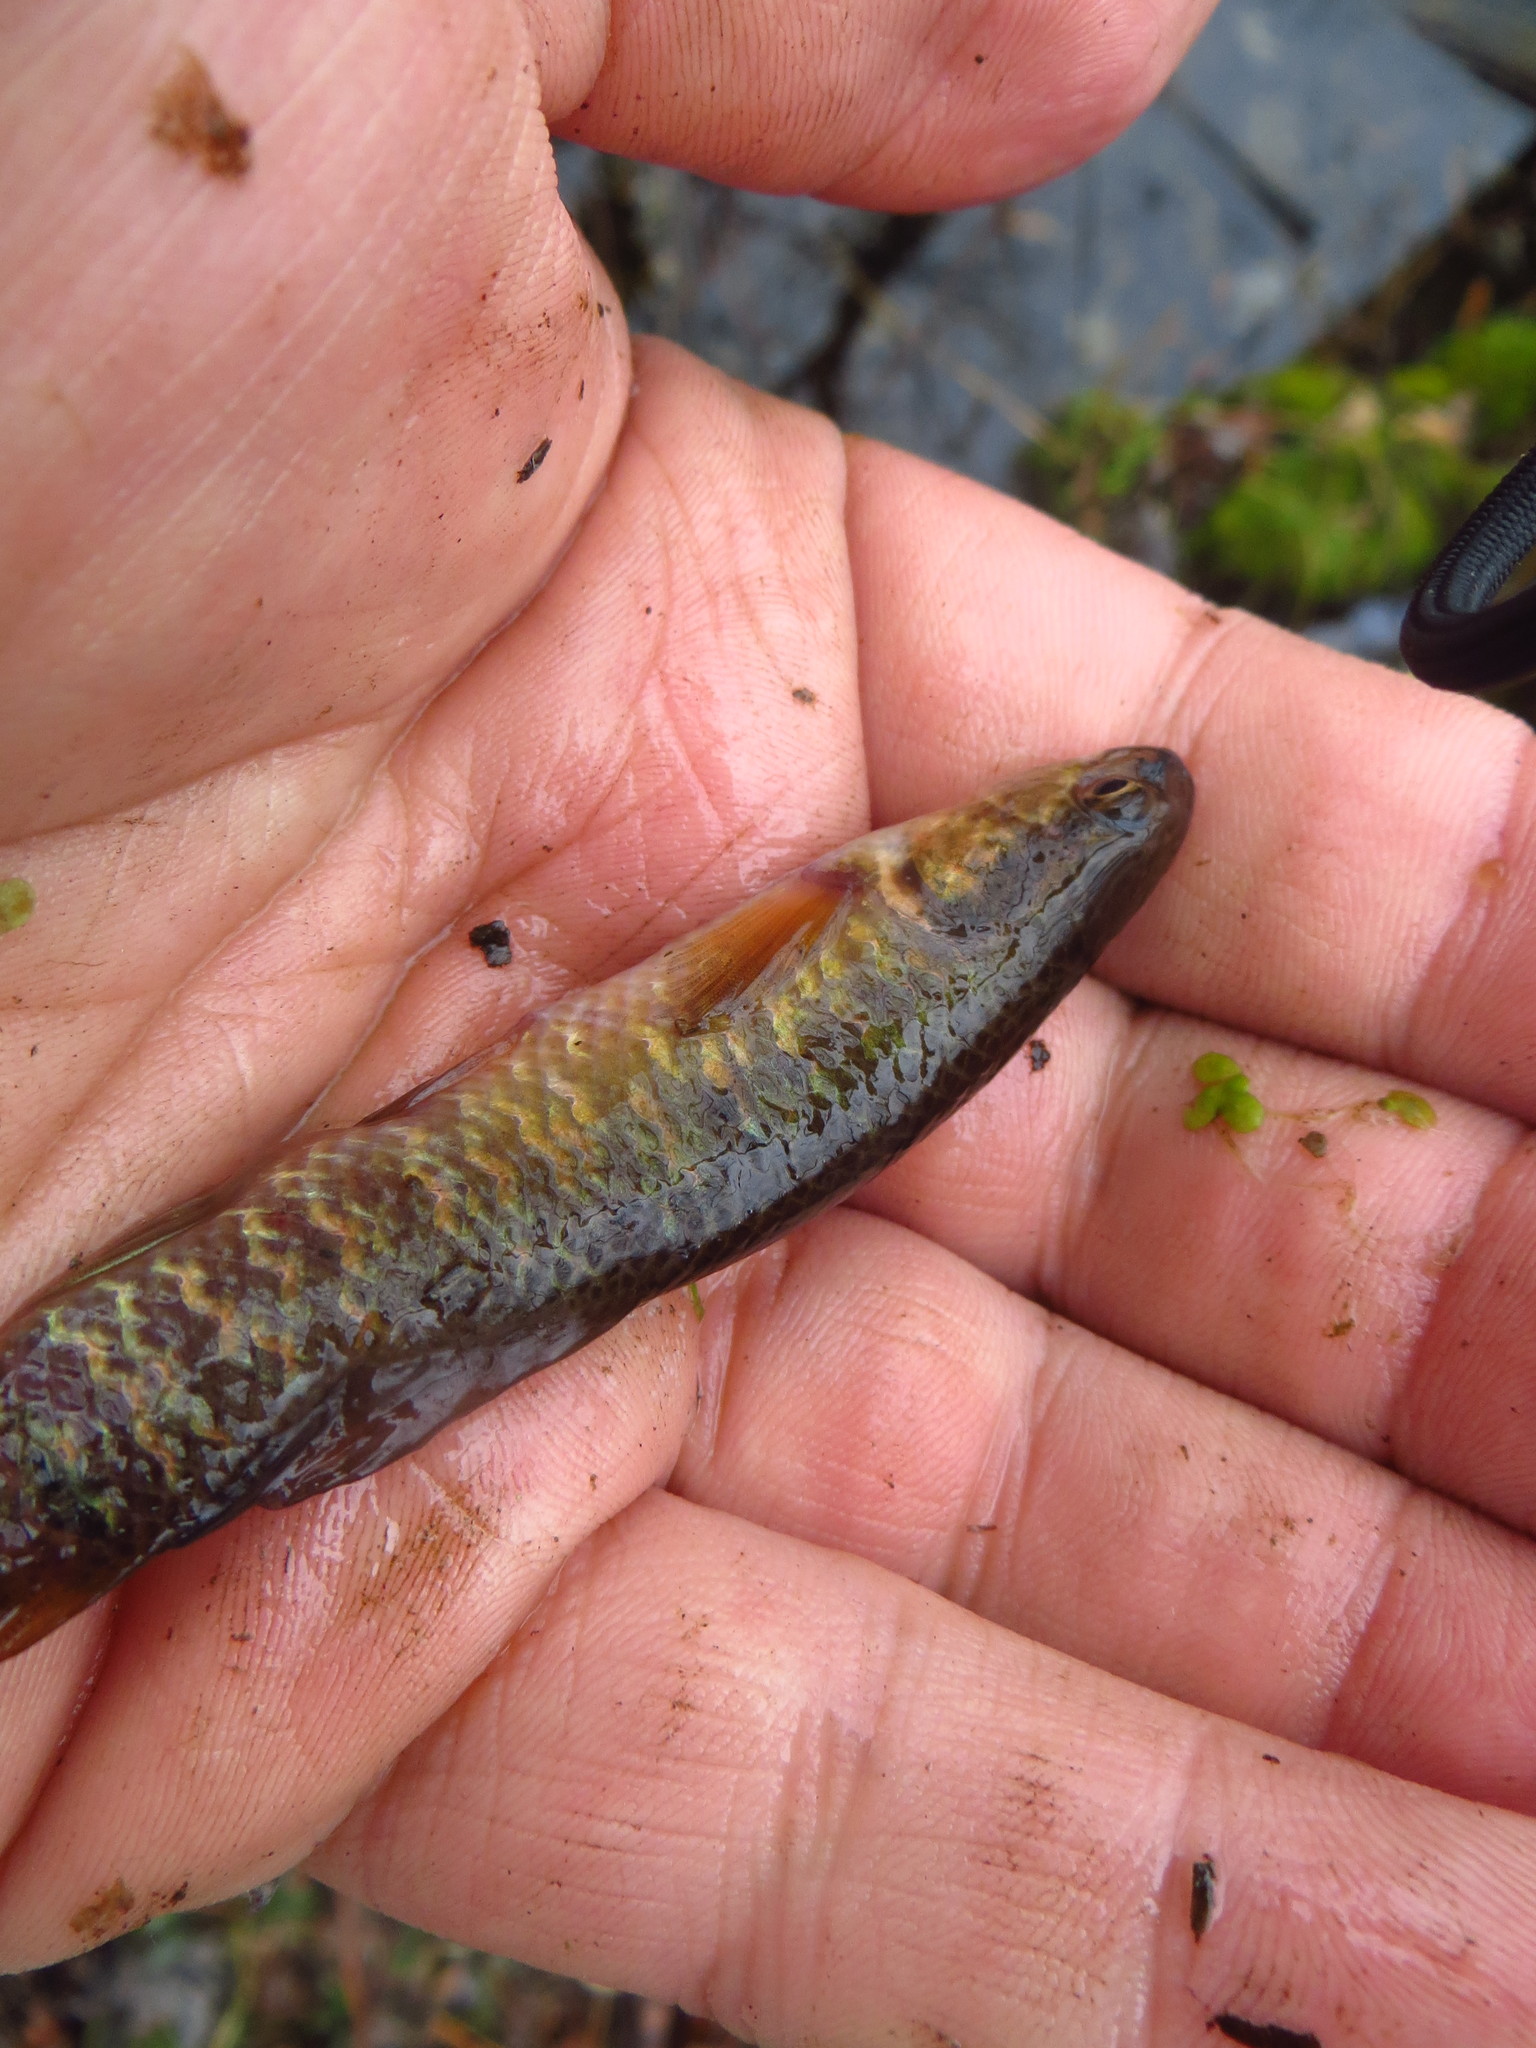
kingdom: Animalia
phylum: Chordata
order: Esociformes
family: Umbridae
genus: Umbra
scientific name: Umbra limi
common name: Central mudminnow
